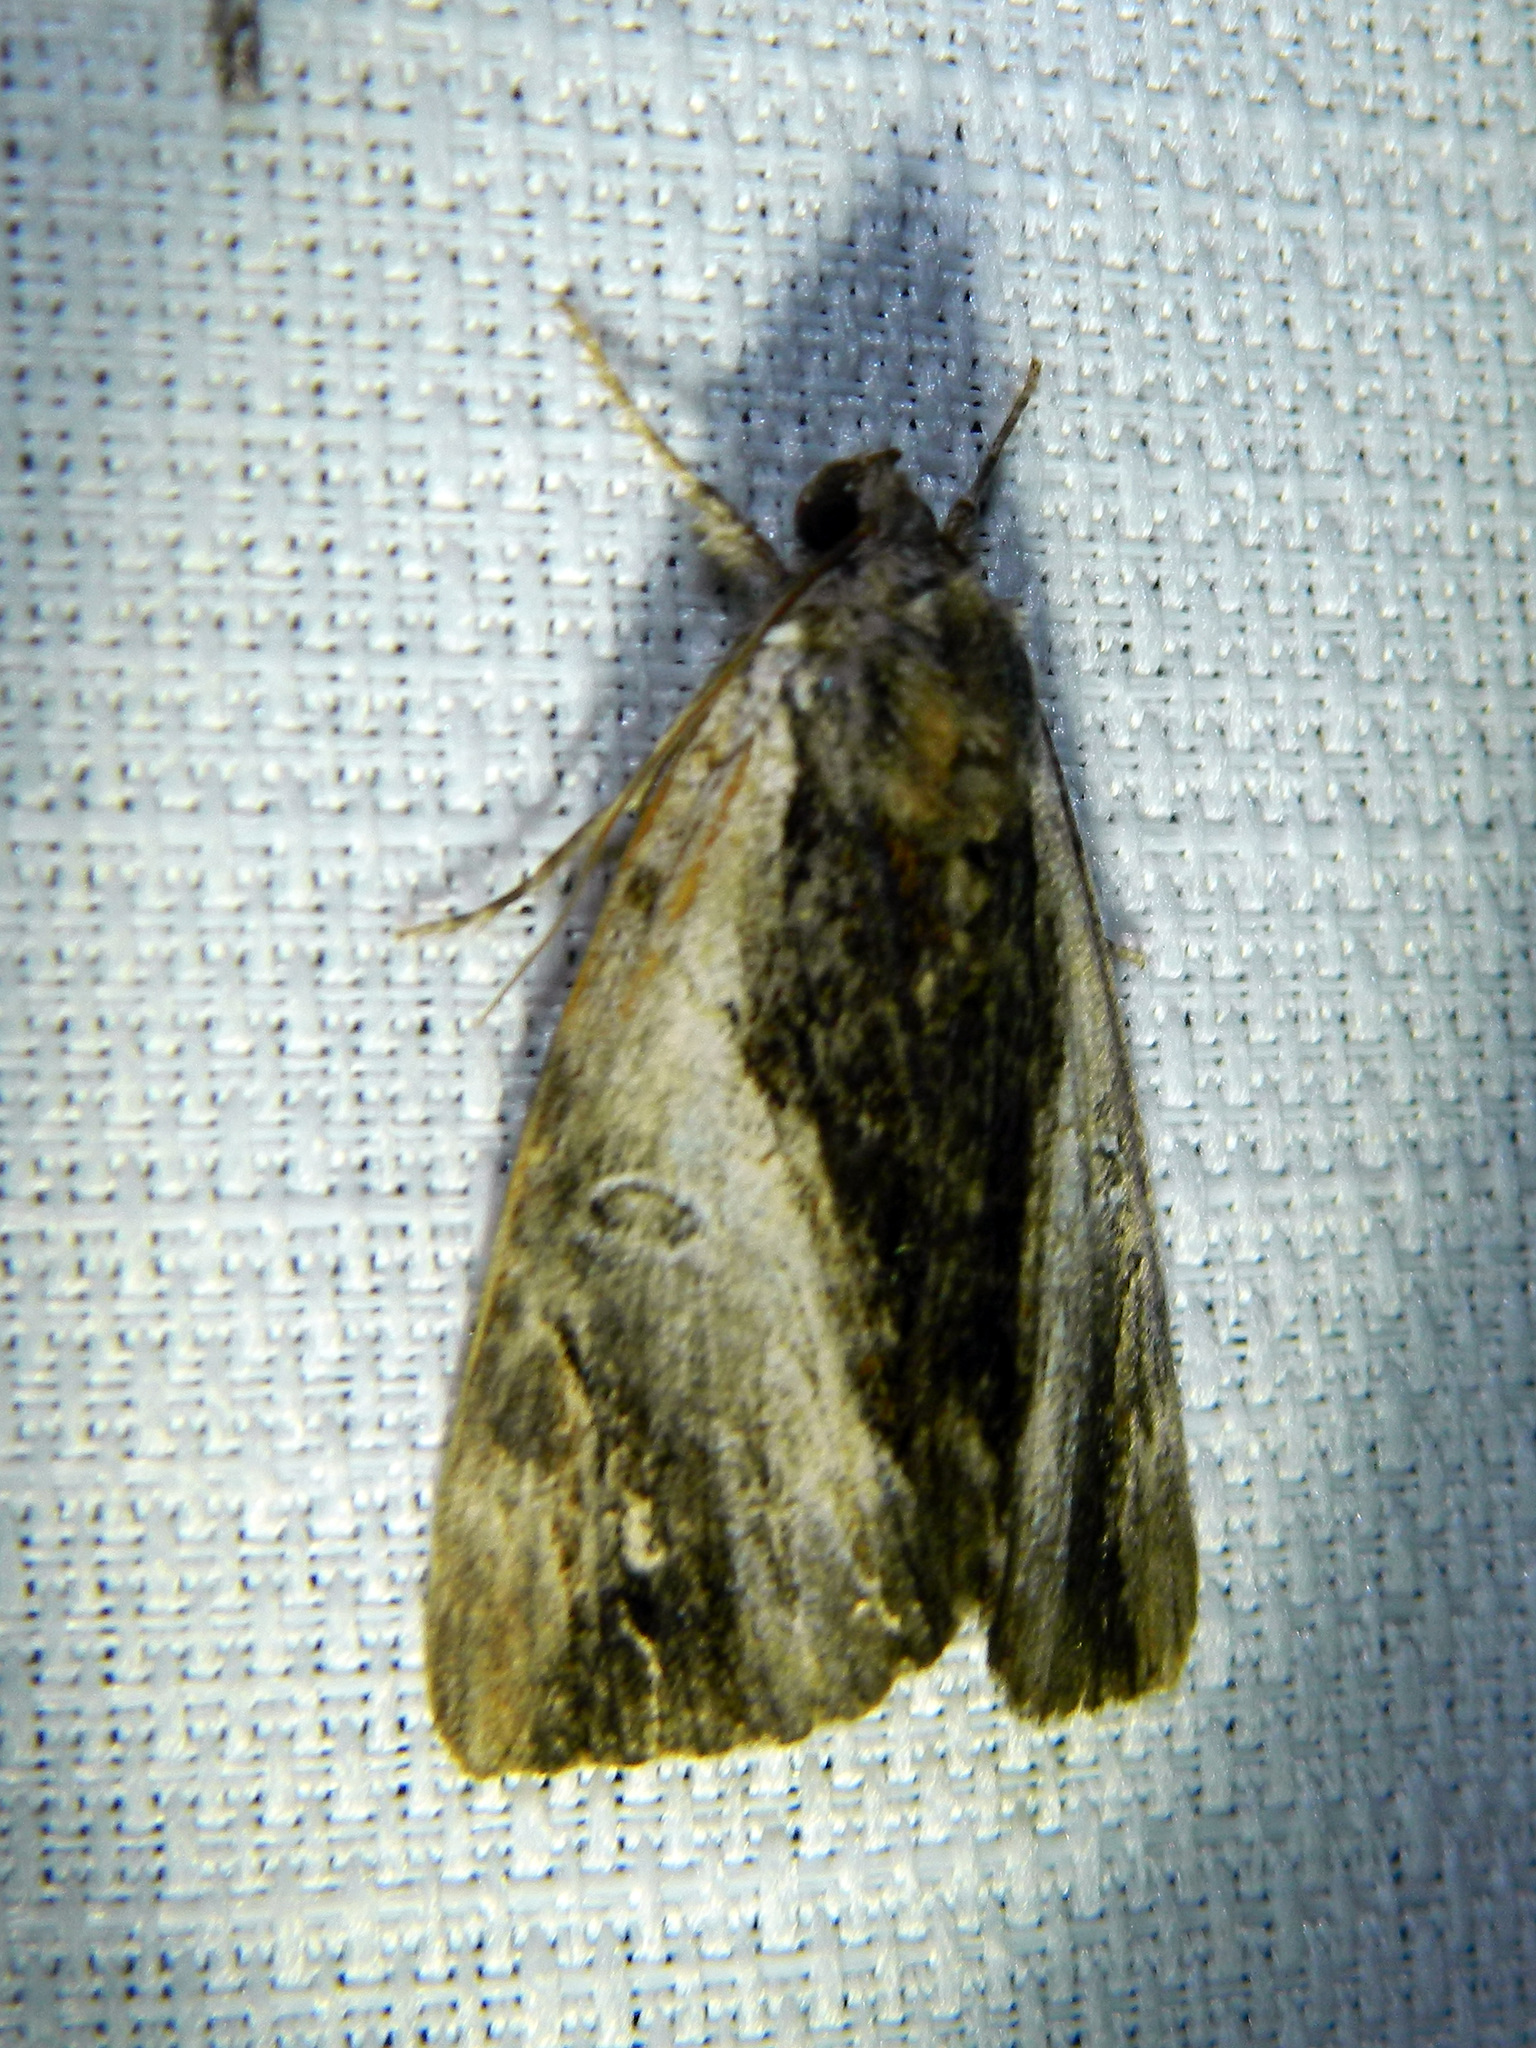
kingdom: Animalia
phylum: Arthropoda
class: Insecta
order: Lepidoptera
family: Erebidae
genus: Catocala
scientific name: Catocala ultronia
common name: Ultronia underwing
